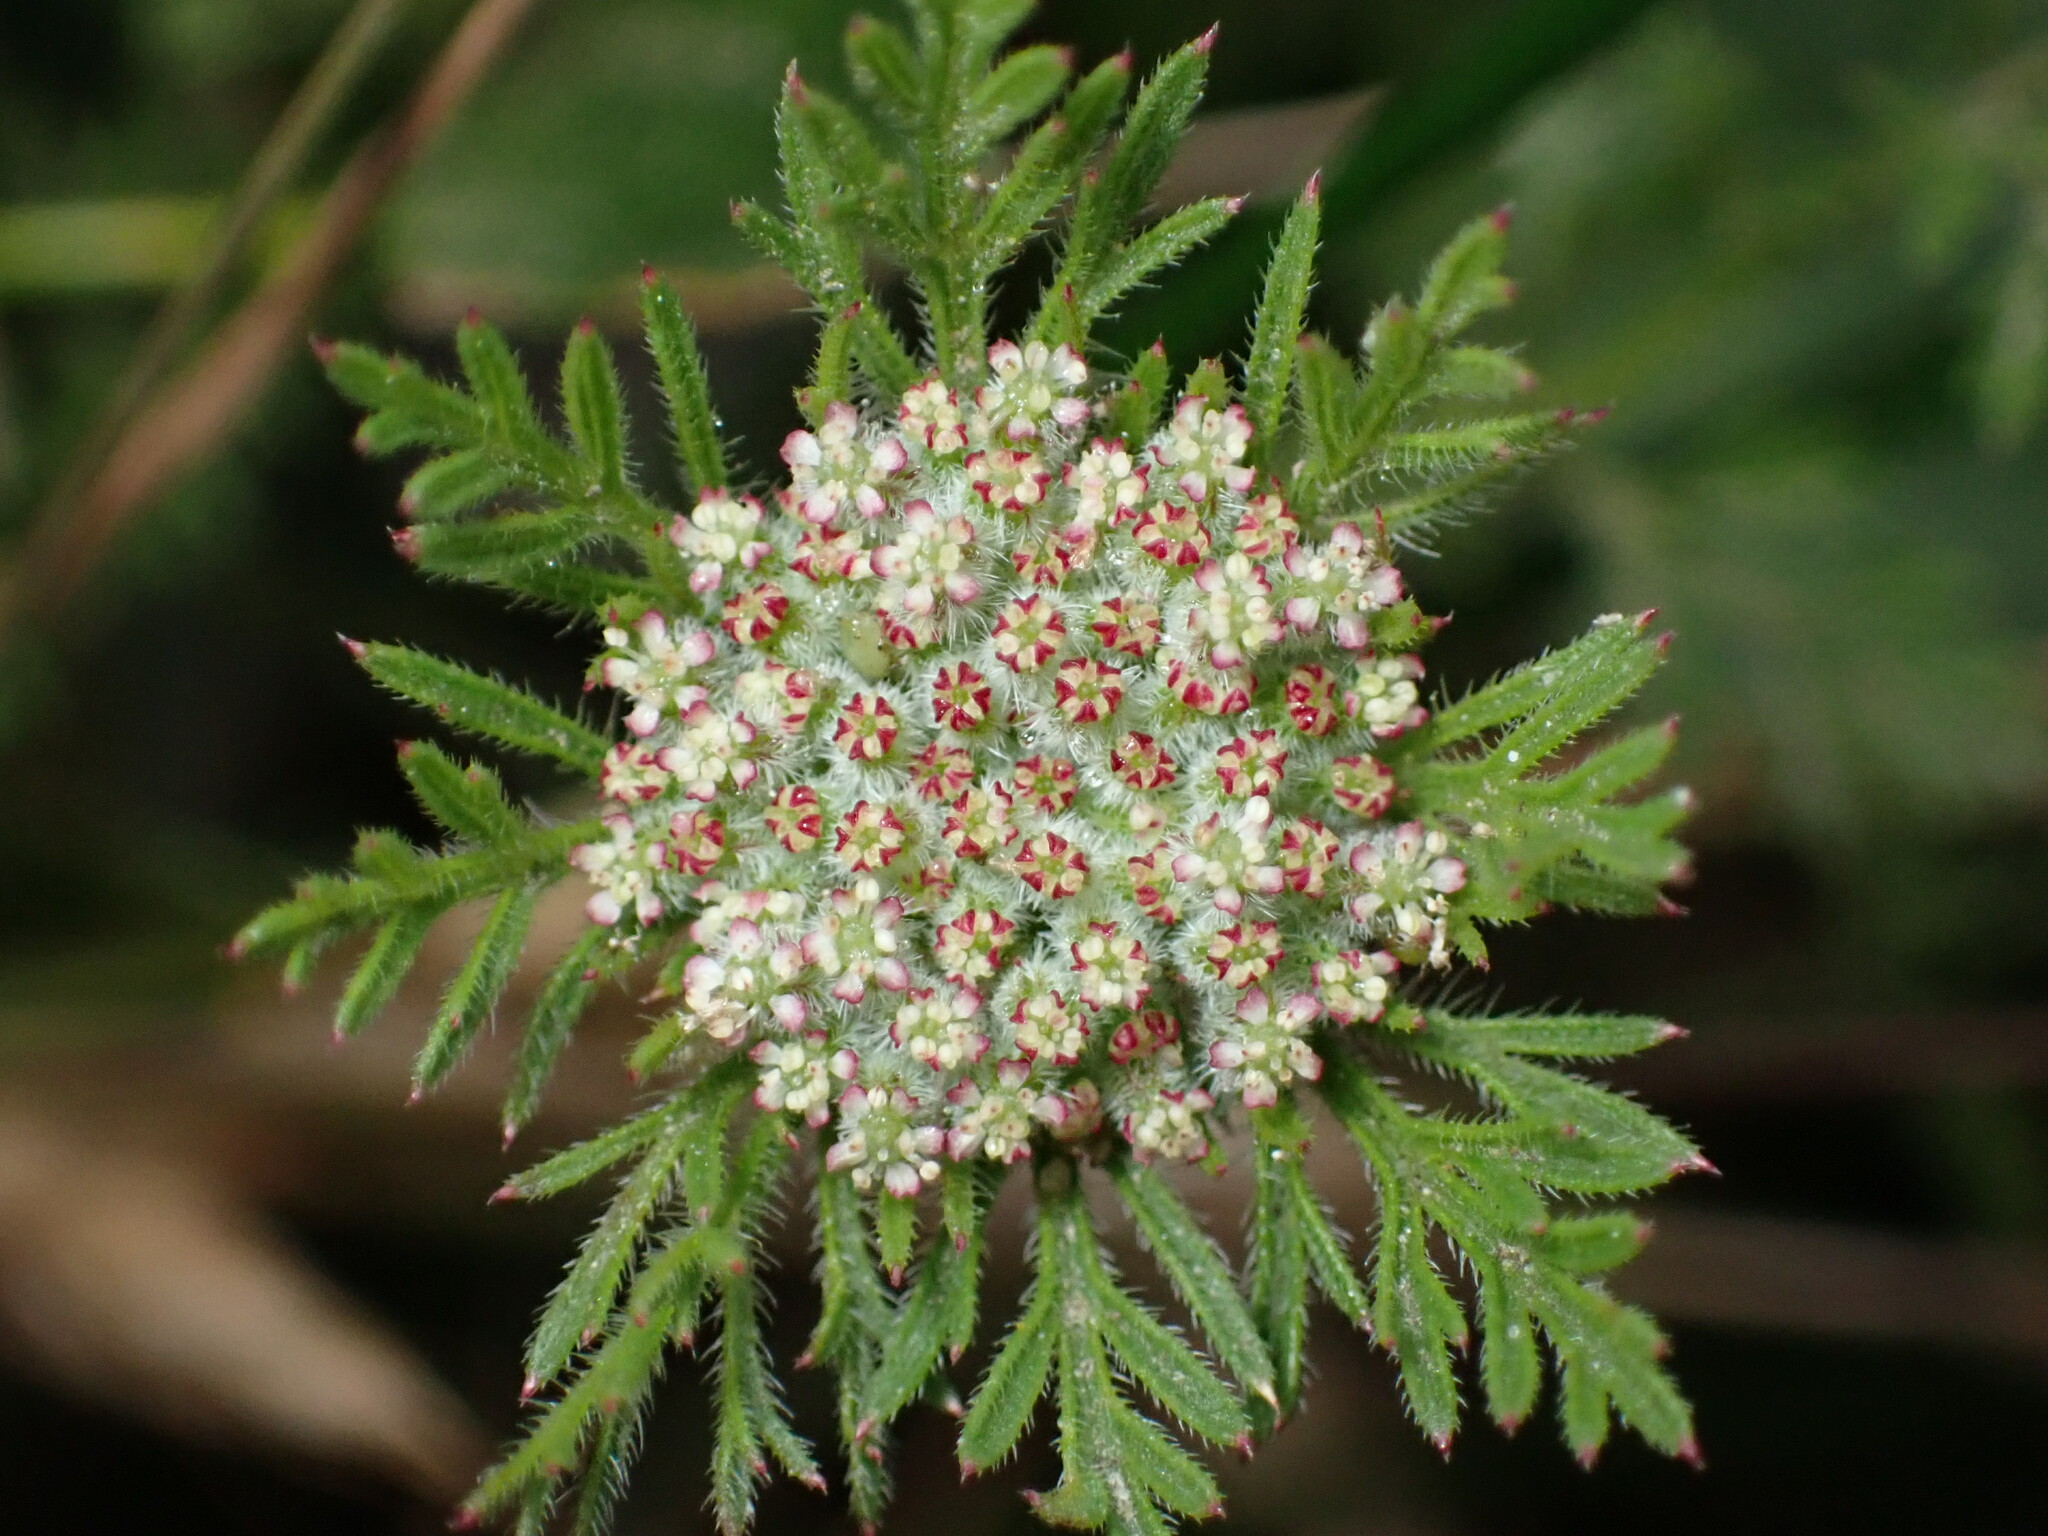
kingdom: Plantae
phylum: Tracheophyta
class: Magnoliopsida
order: Apiales
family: Apiaceae
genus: Daucus
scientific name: Daucus pusillus
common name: Southwest wild carrot
